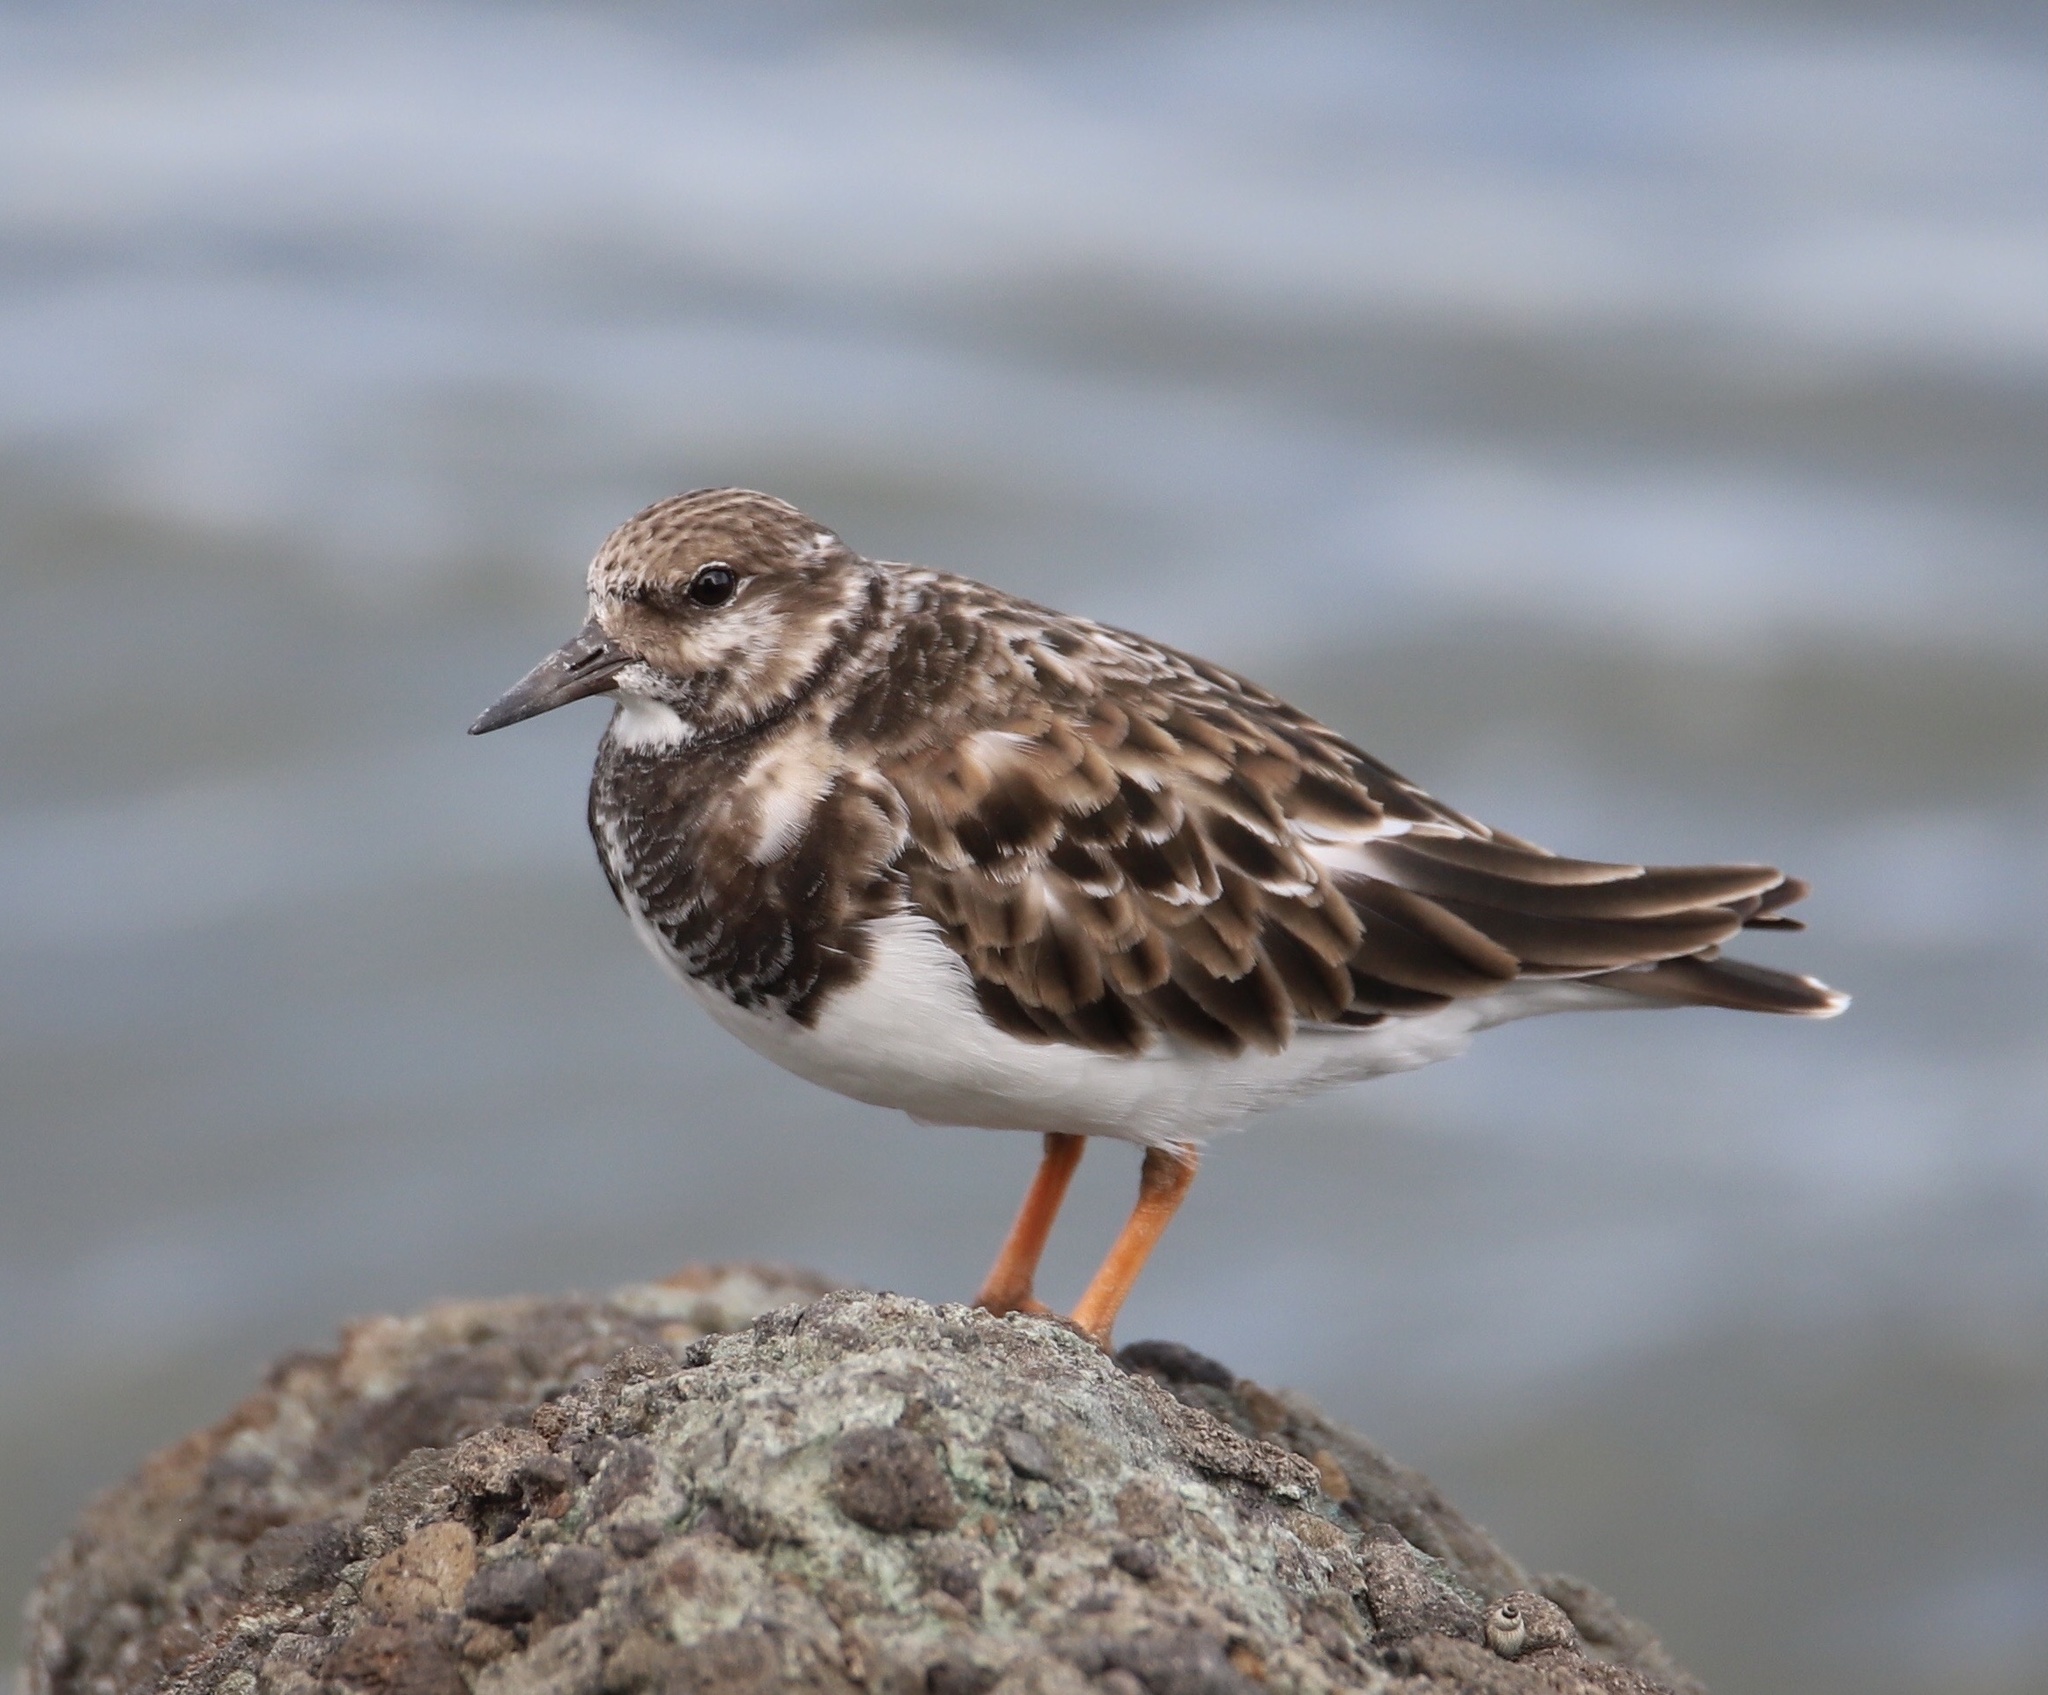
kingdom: Animalia
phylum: Chordata
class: Aves
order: Charadriiformes
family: Scolopacidae
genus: Arenaria
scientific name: Arenaria interpres
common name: Ruddy turnstone
